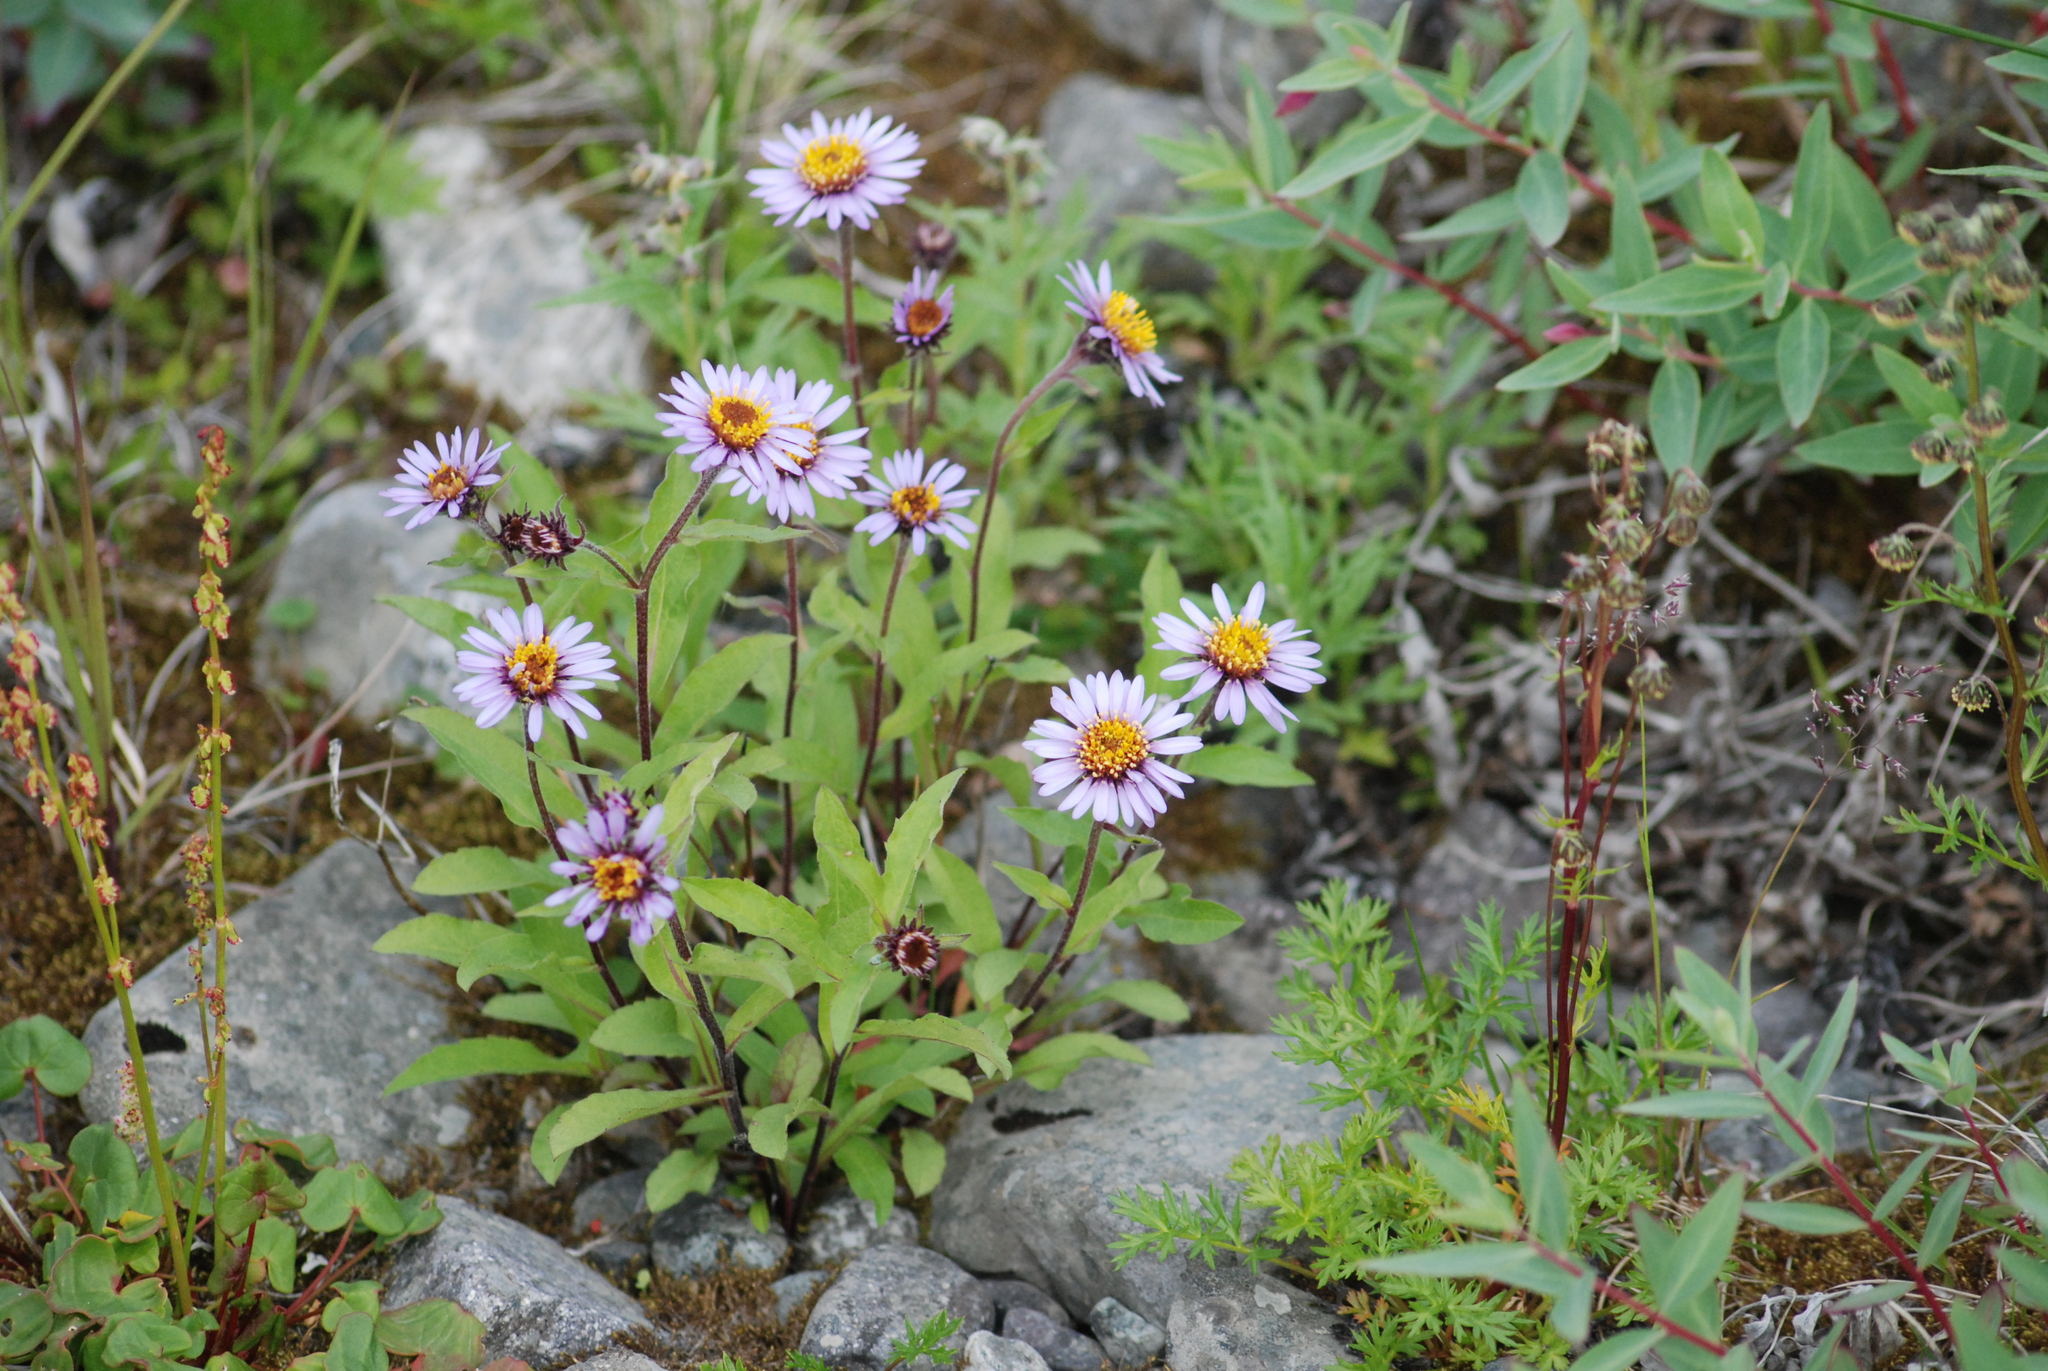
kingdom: Plantae
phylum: Tracheophyta
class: Magnoliopsida
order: Asterales
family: Asteraceae
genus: Eurybia
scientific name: Eurybia sibirica
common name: Arctic aster
